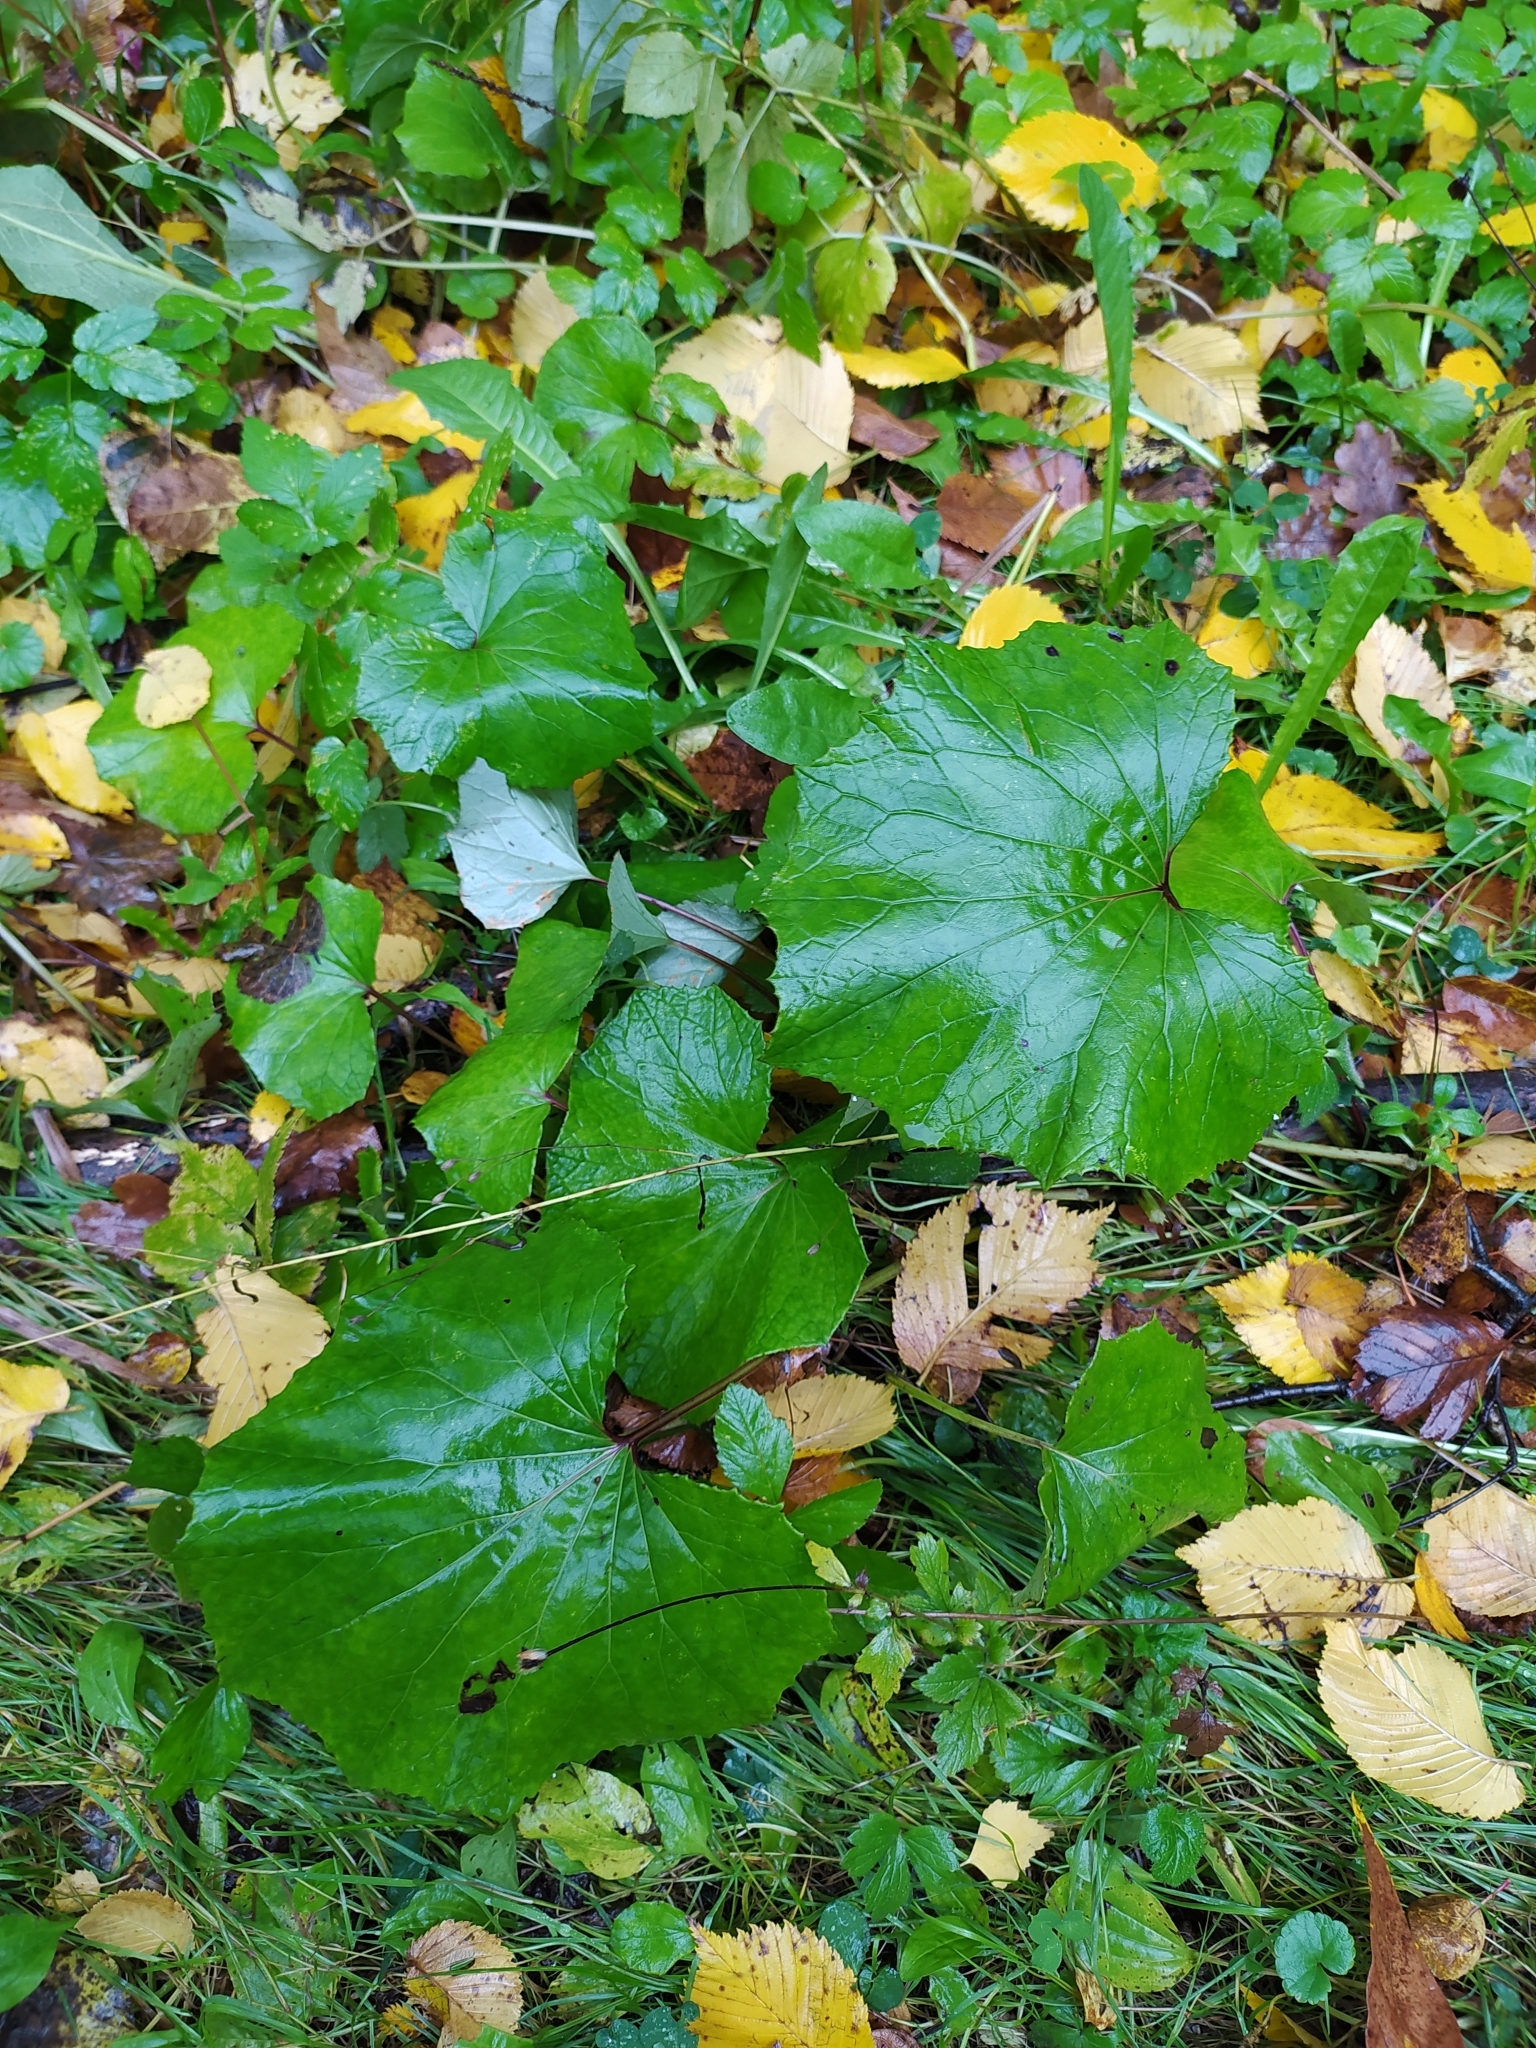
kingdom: Plantae
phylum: Tracheophyta
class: Magnoliopsida
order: Asterales
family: Asteraceae
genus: Tussilago
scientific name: Tussilago farfara
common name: Coltsfoot
